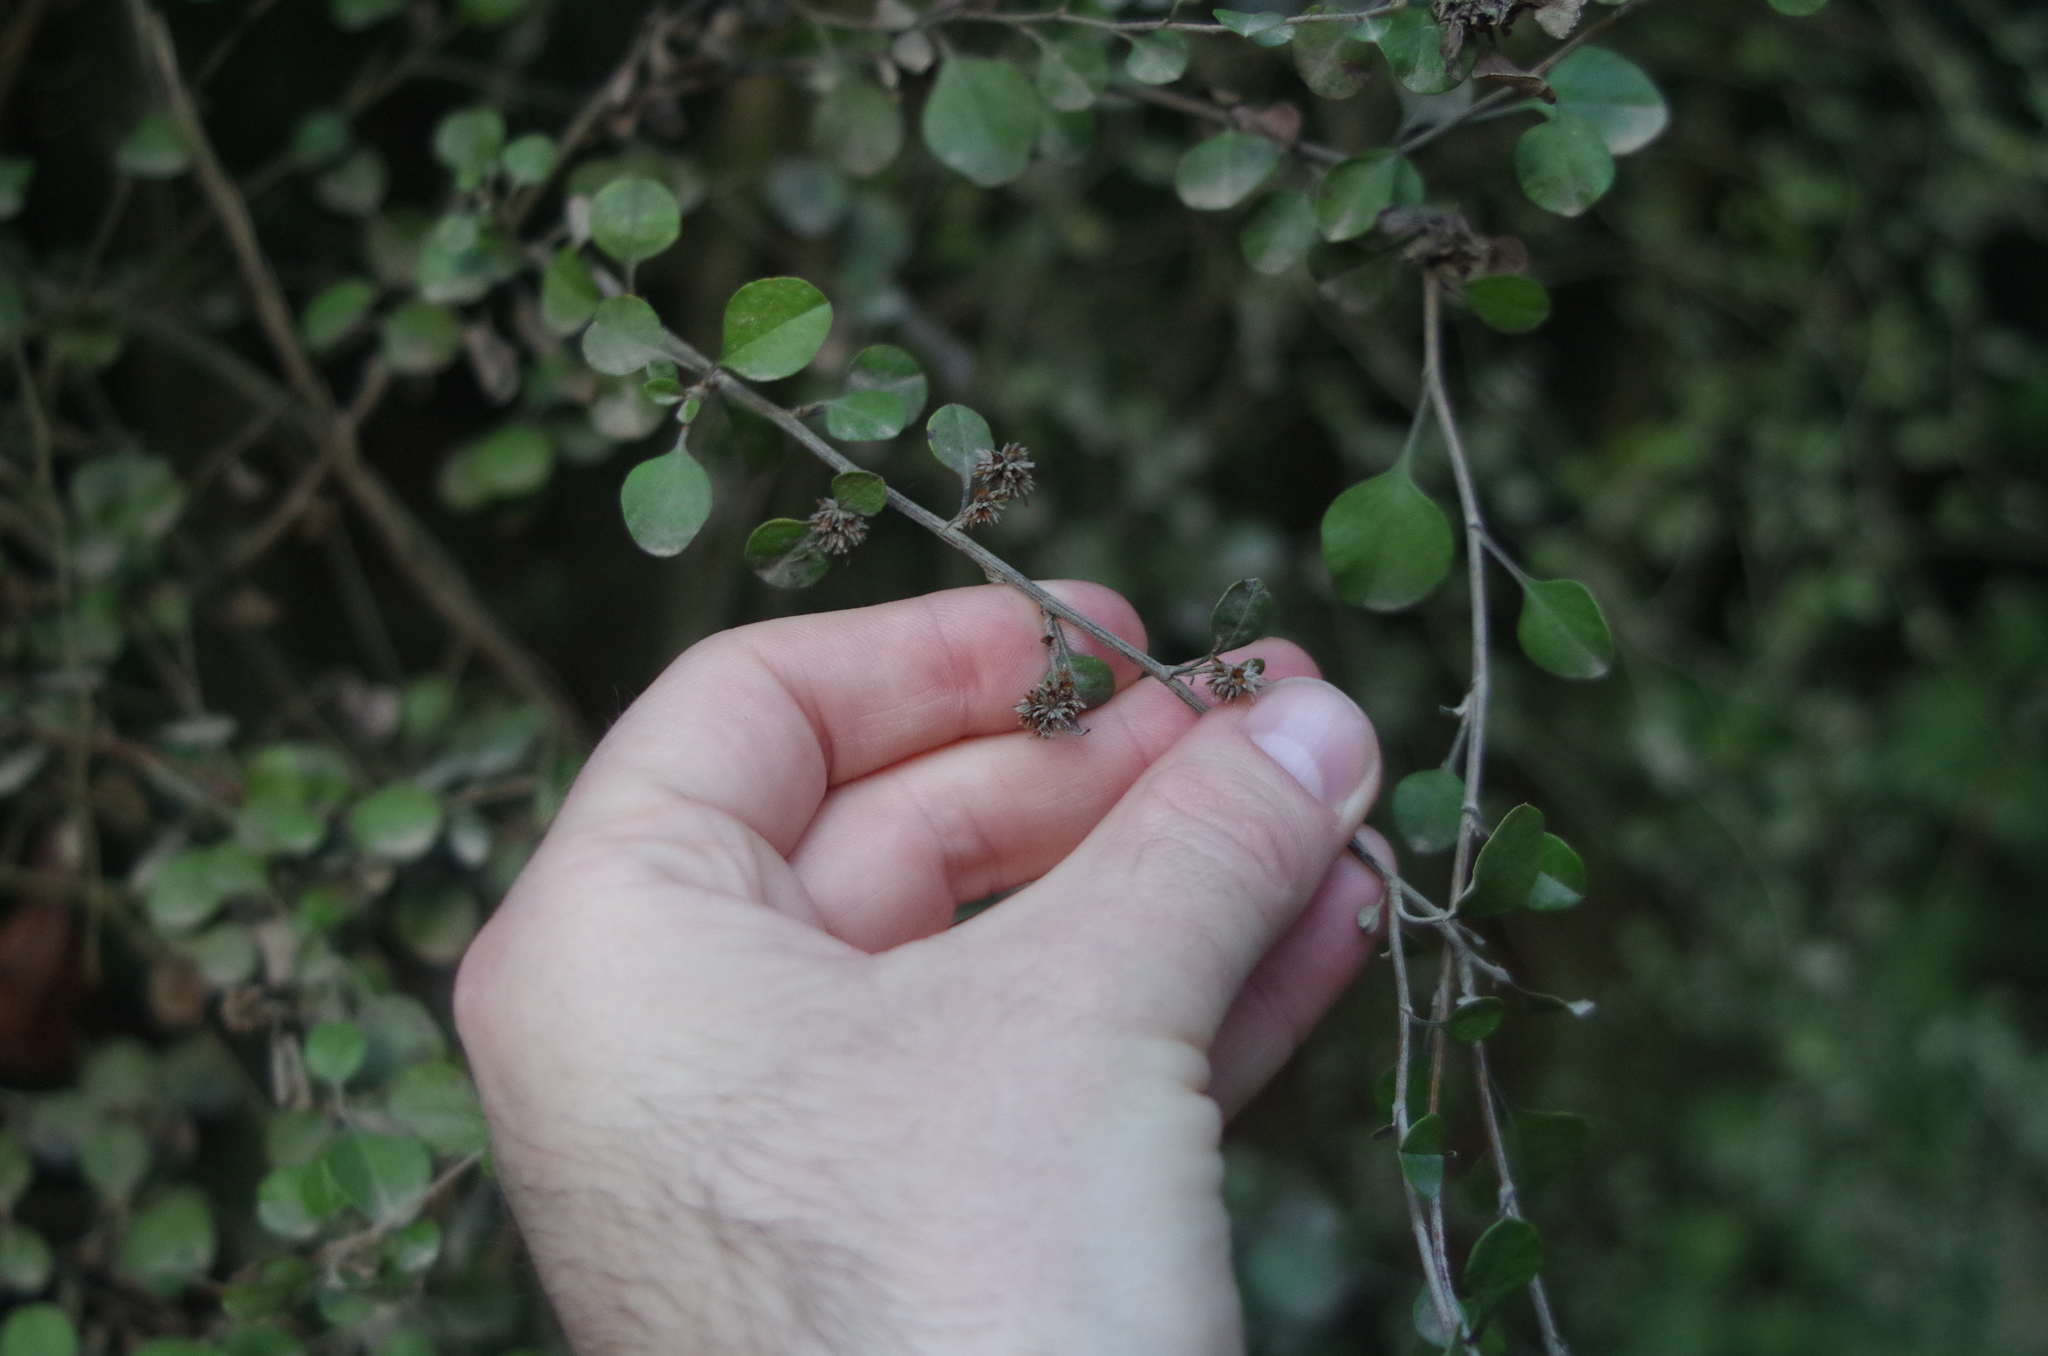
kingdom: Plantae
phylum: Tracheophyta
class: Magnoliopsida
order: Asterales
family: Asteraceae
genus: Ozothamnus
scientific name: Ozothamnus glomeratus
